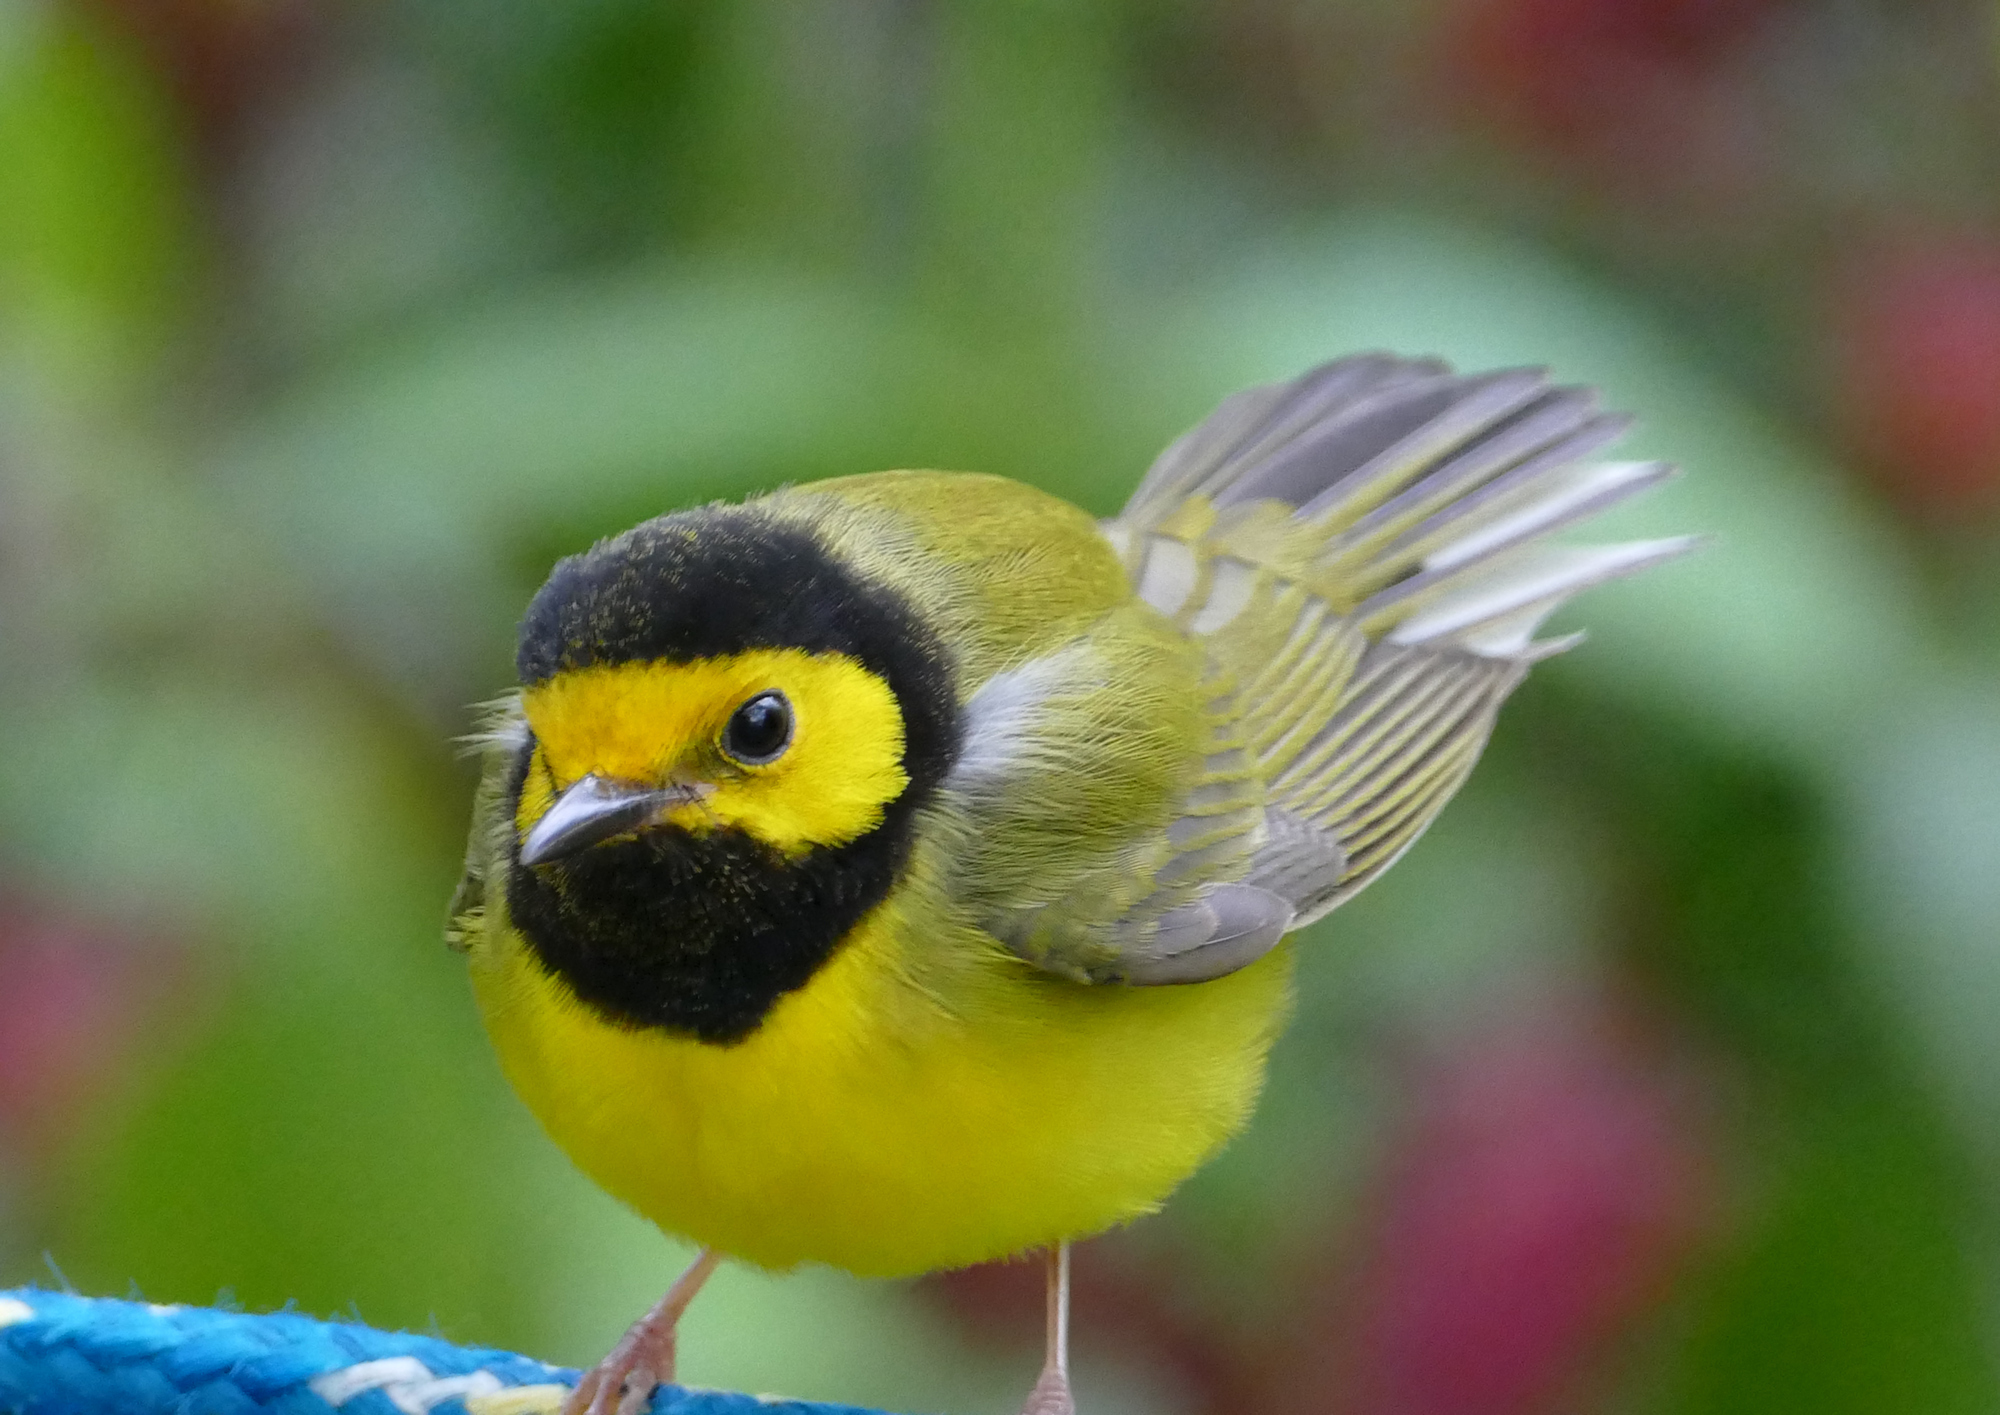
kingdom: Animalia
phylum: Chordata
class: Aves
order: Passeriformes
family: Parulidae
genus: Setophaga
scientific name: Setophaga citrina
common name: Hooded warbler
